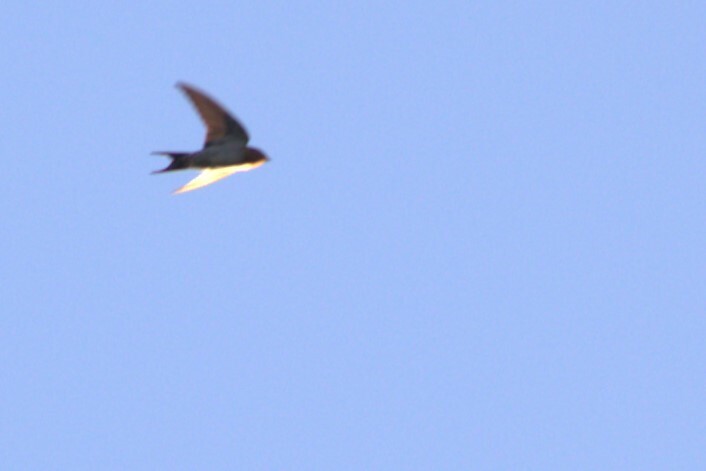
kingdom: Animalia
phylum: Chordata
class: Aves
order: Passeriformes
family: Hirundinidae
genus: Hirundo
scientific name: Hirundo neoxena
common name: Welcome swallow
